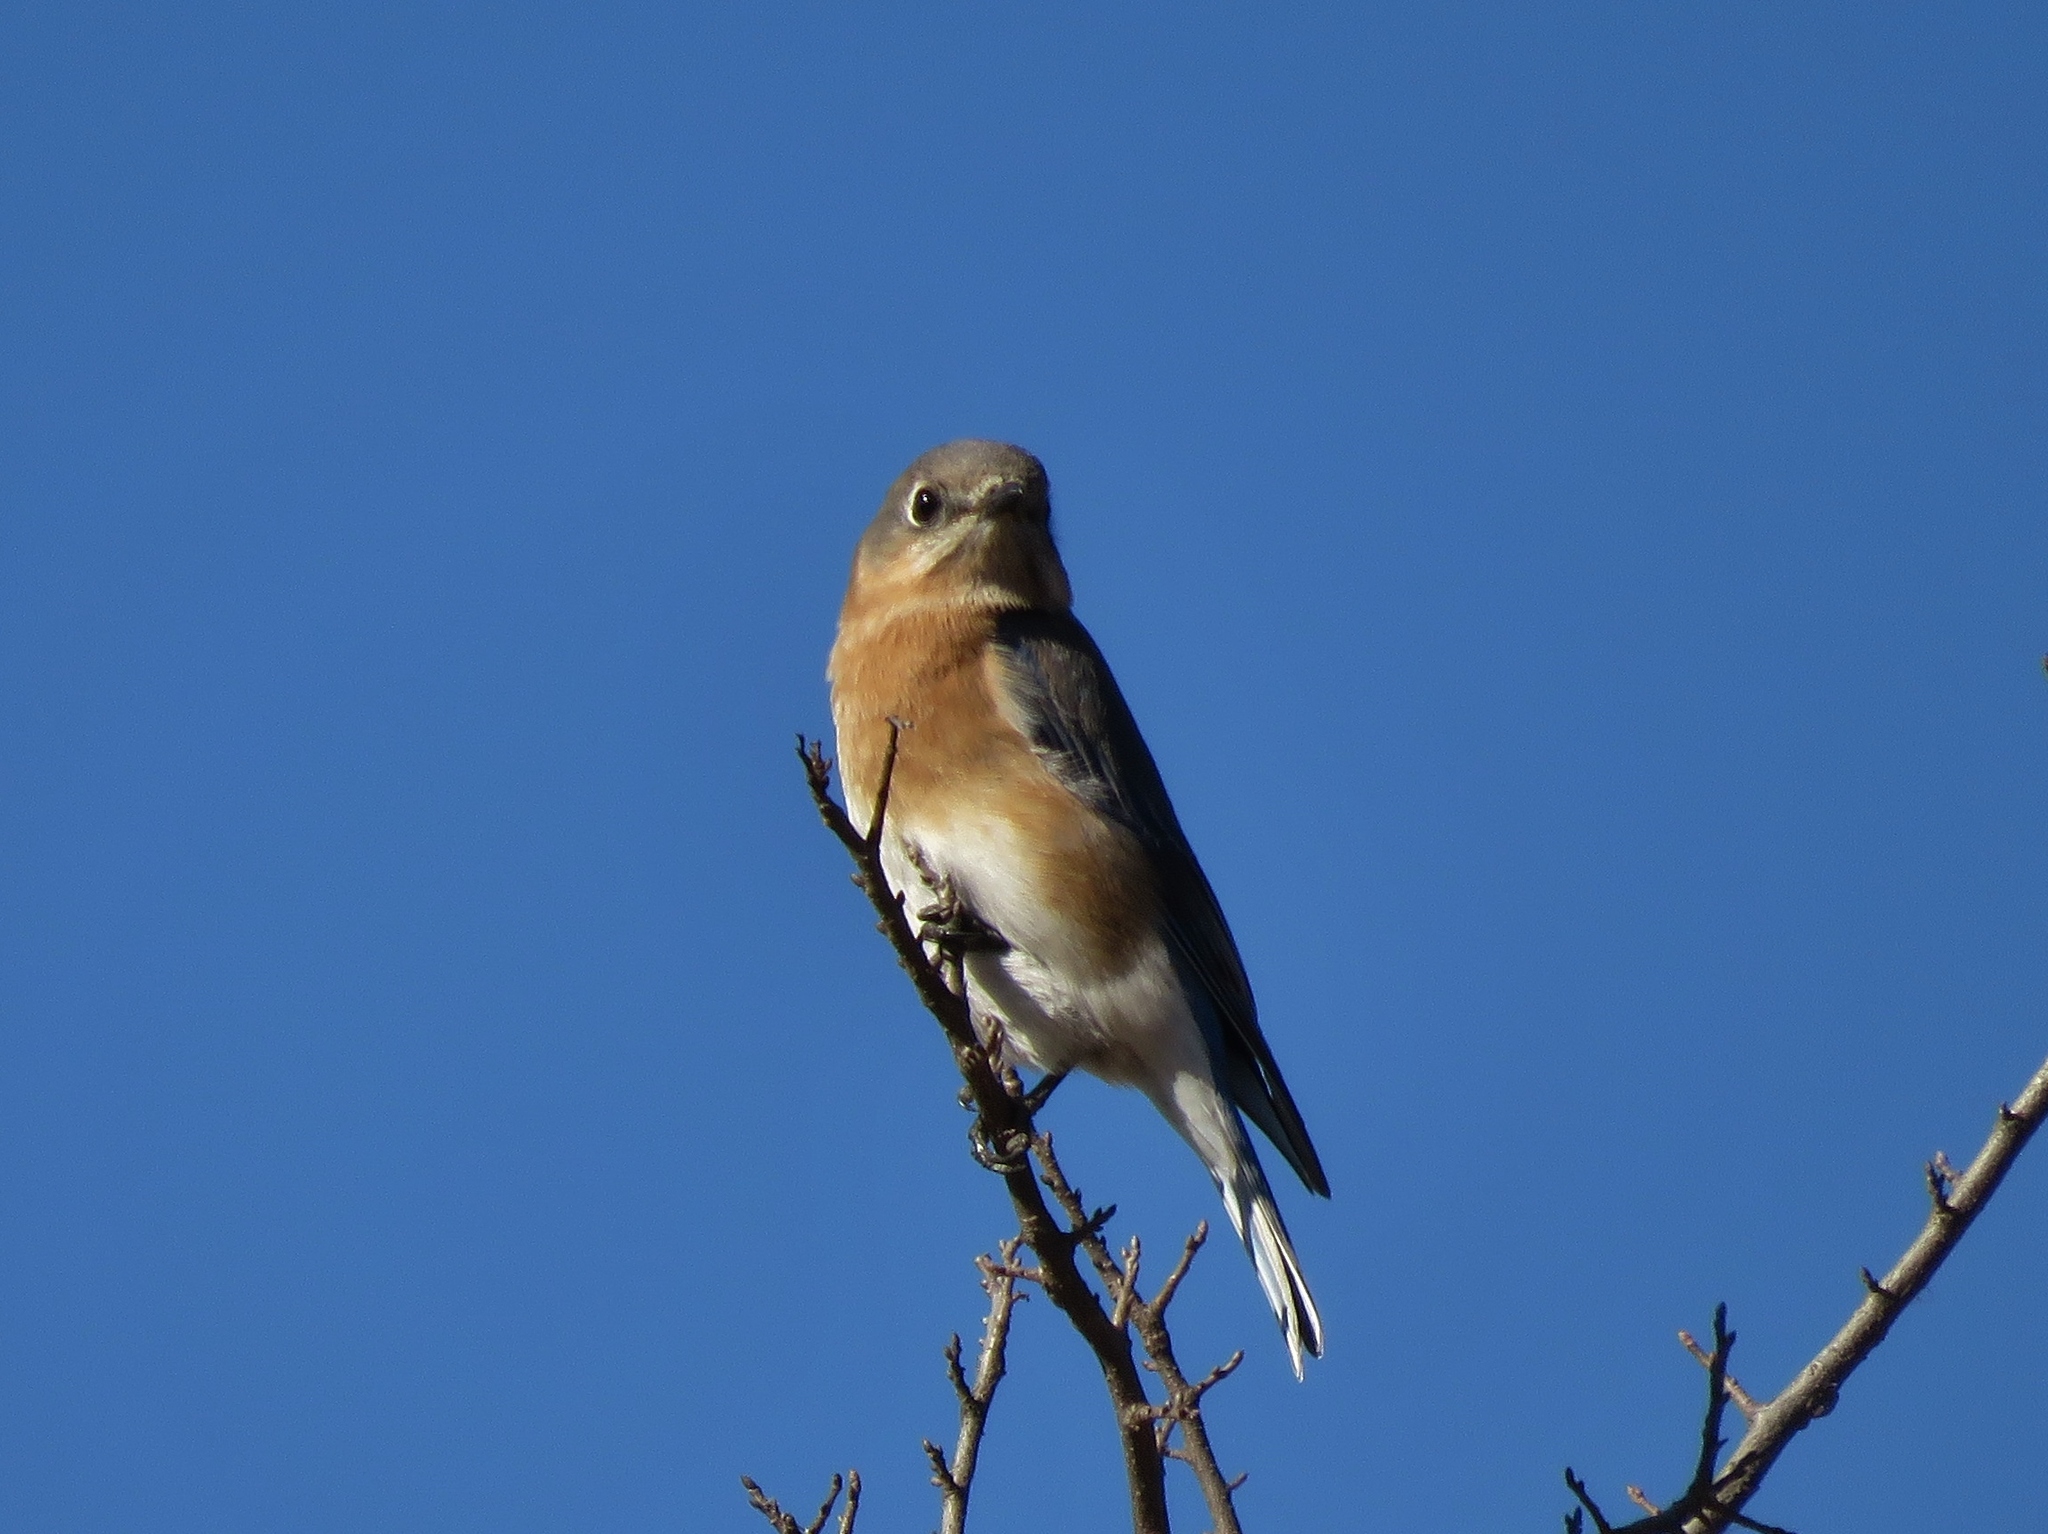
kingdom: Animalia
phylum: Chordata
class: Aves
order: Passeriformes
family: Turdidae
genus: Sialia
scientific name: Sialia sialis
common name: Eastern bluebird
